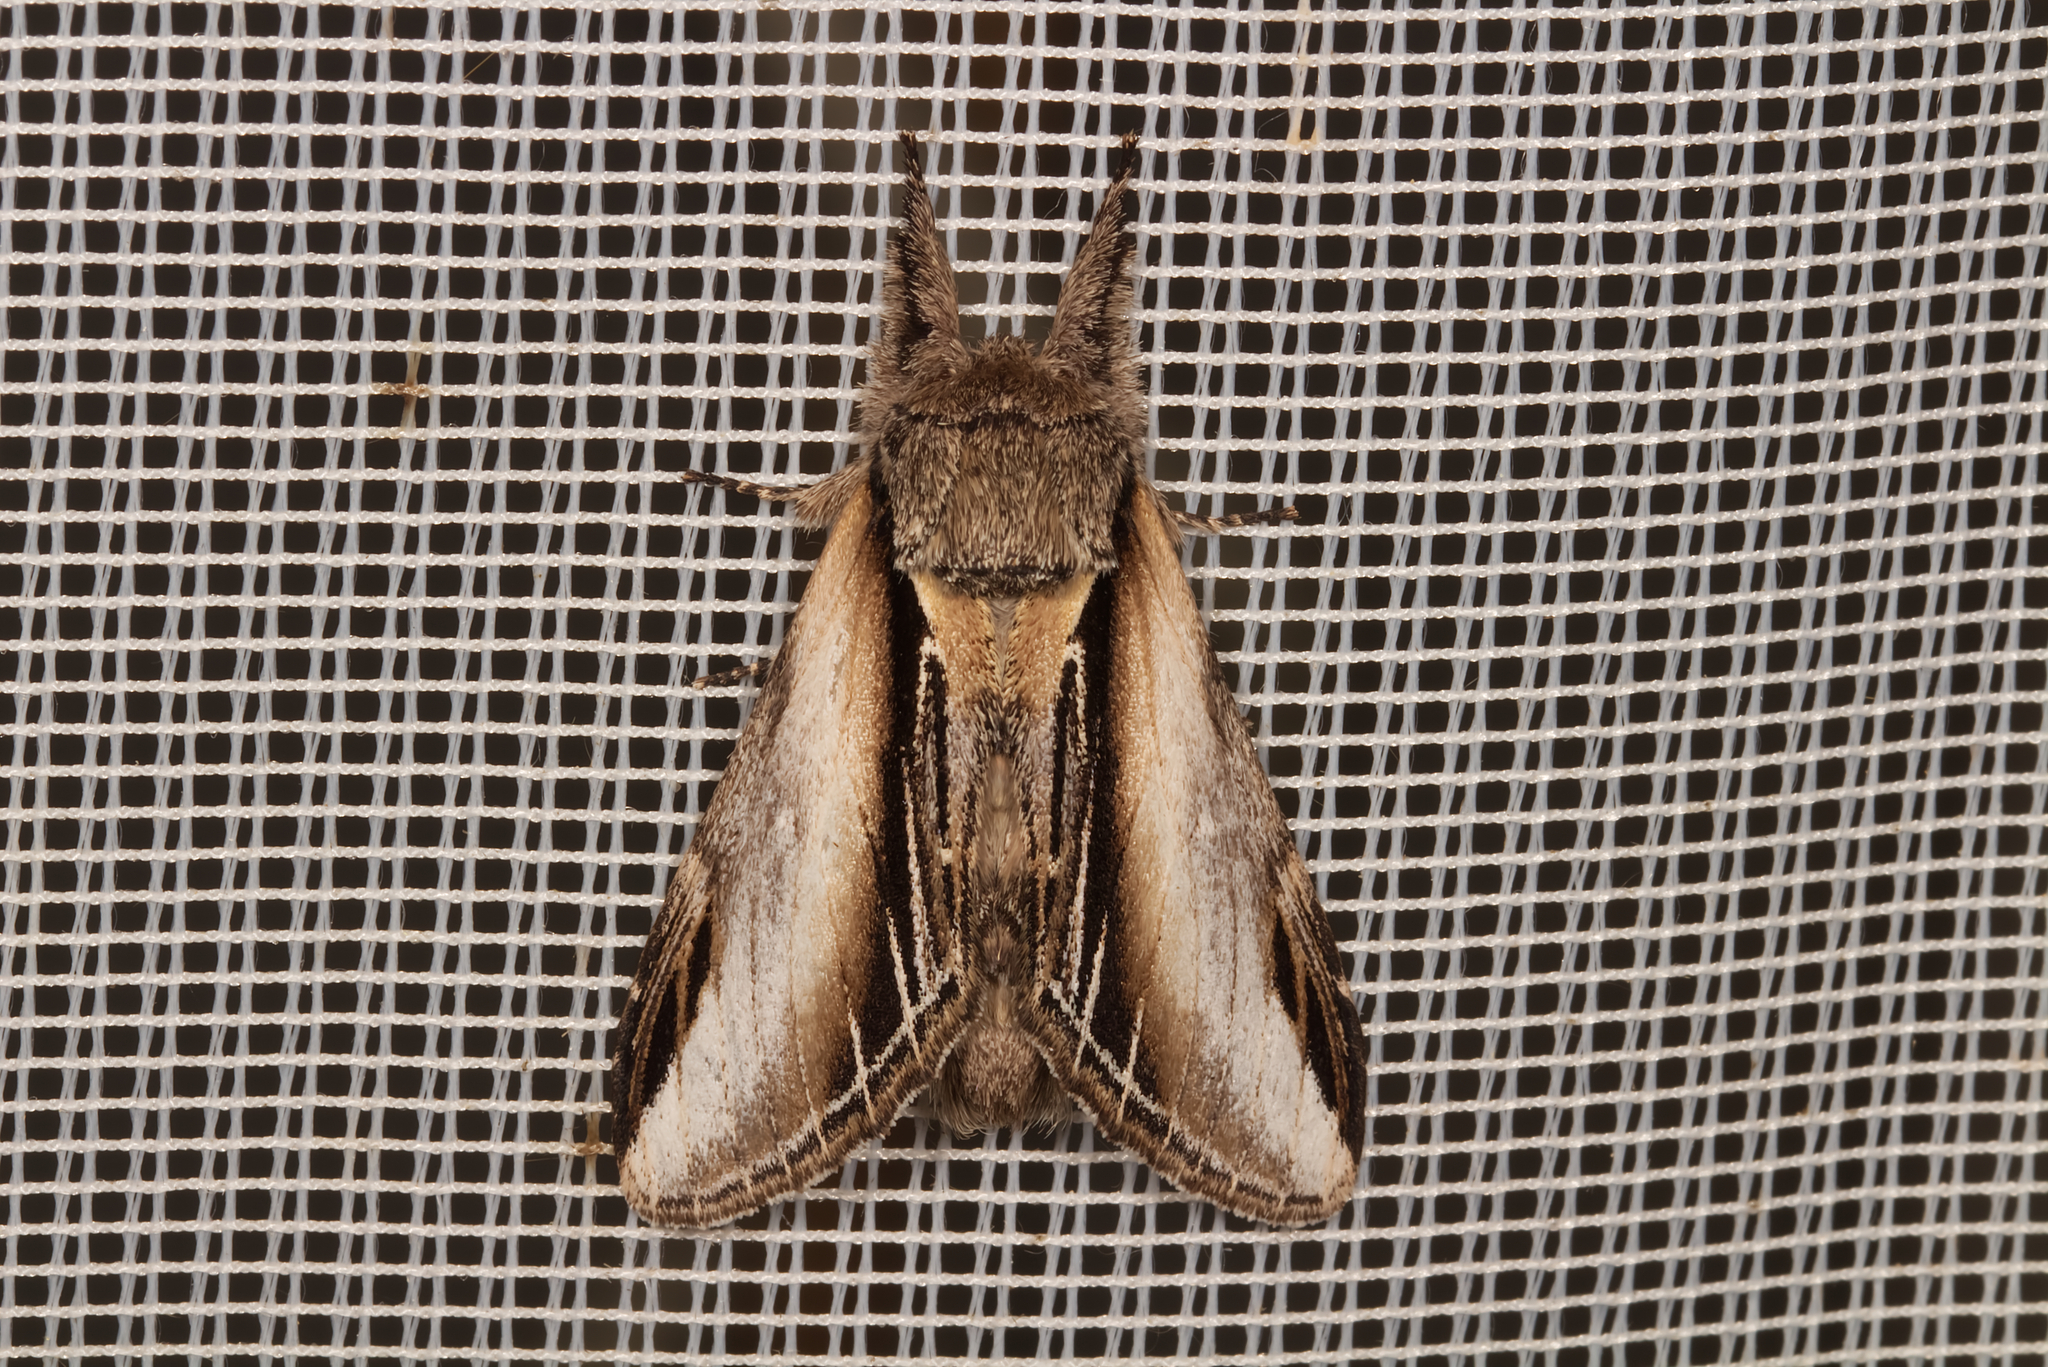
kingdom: Animalia
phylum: Arthropoda
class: Insecta
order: Lepidoptera
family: Notodontidae
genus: Pheosia
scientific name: Pheosia tremula
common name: Swallow prominent
